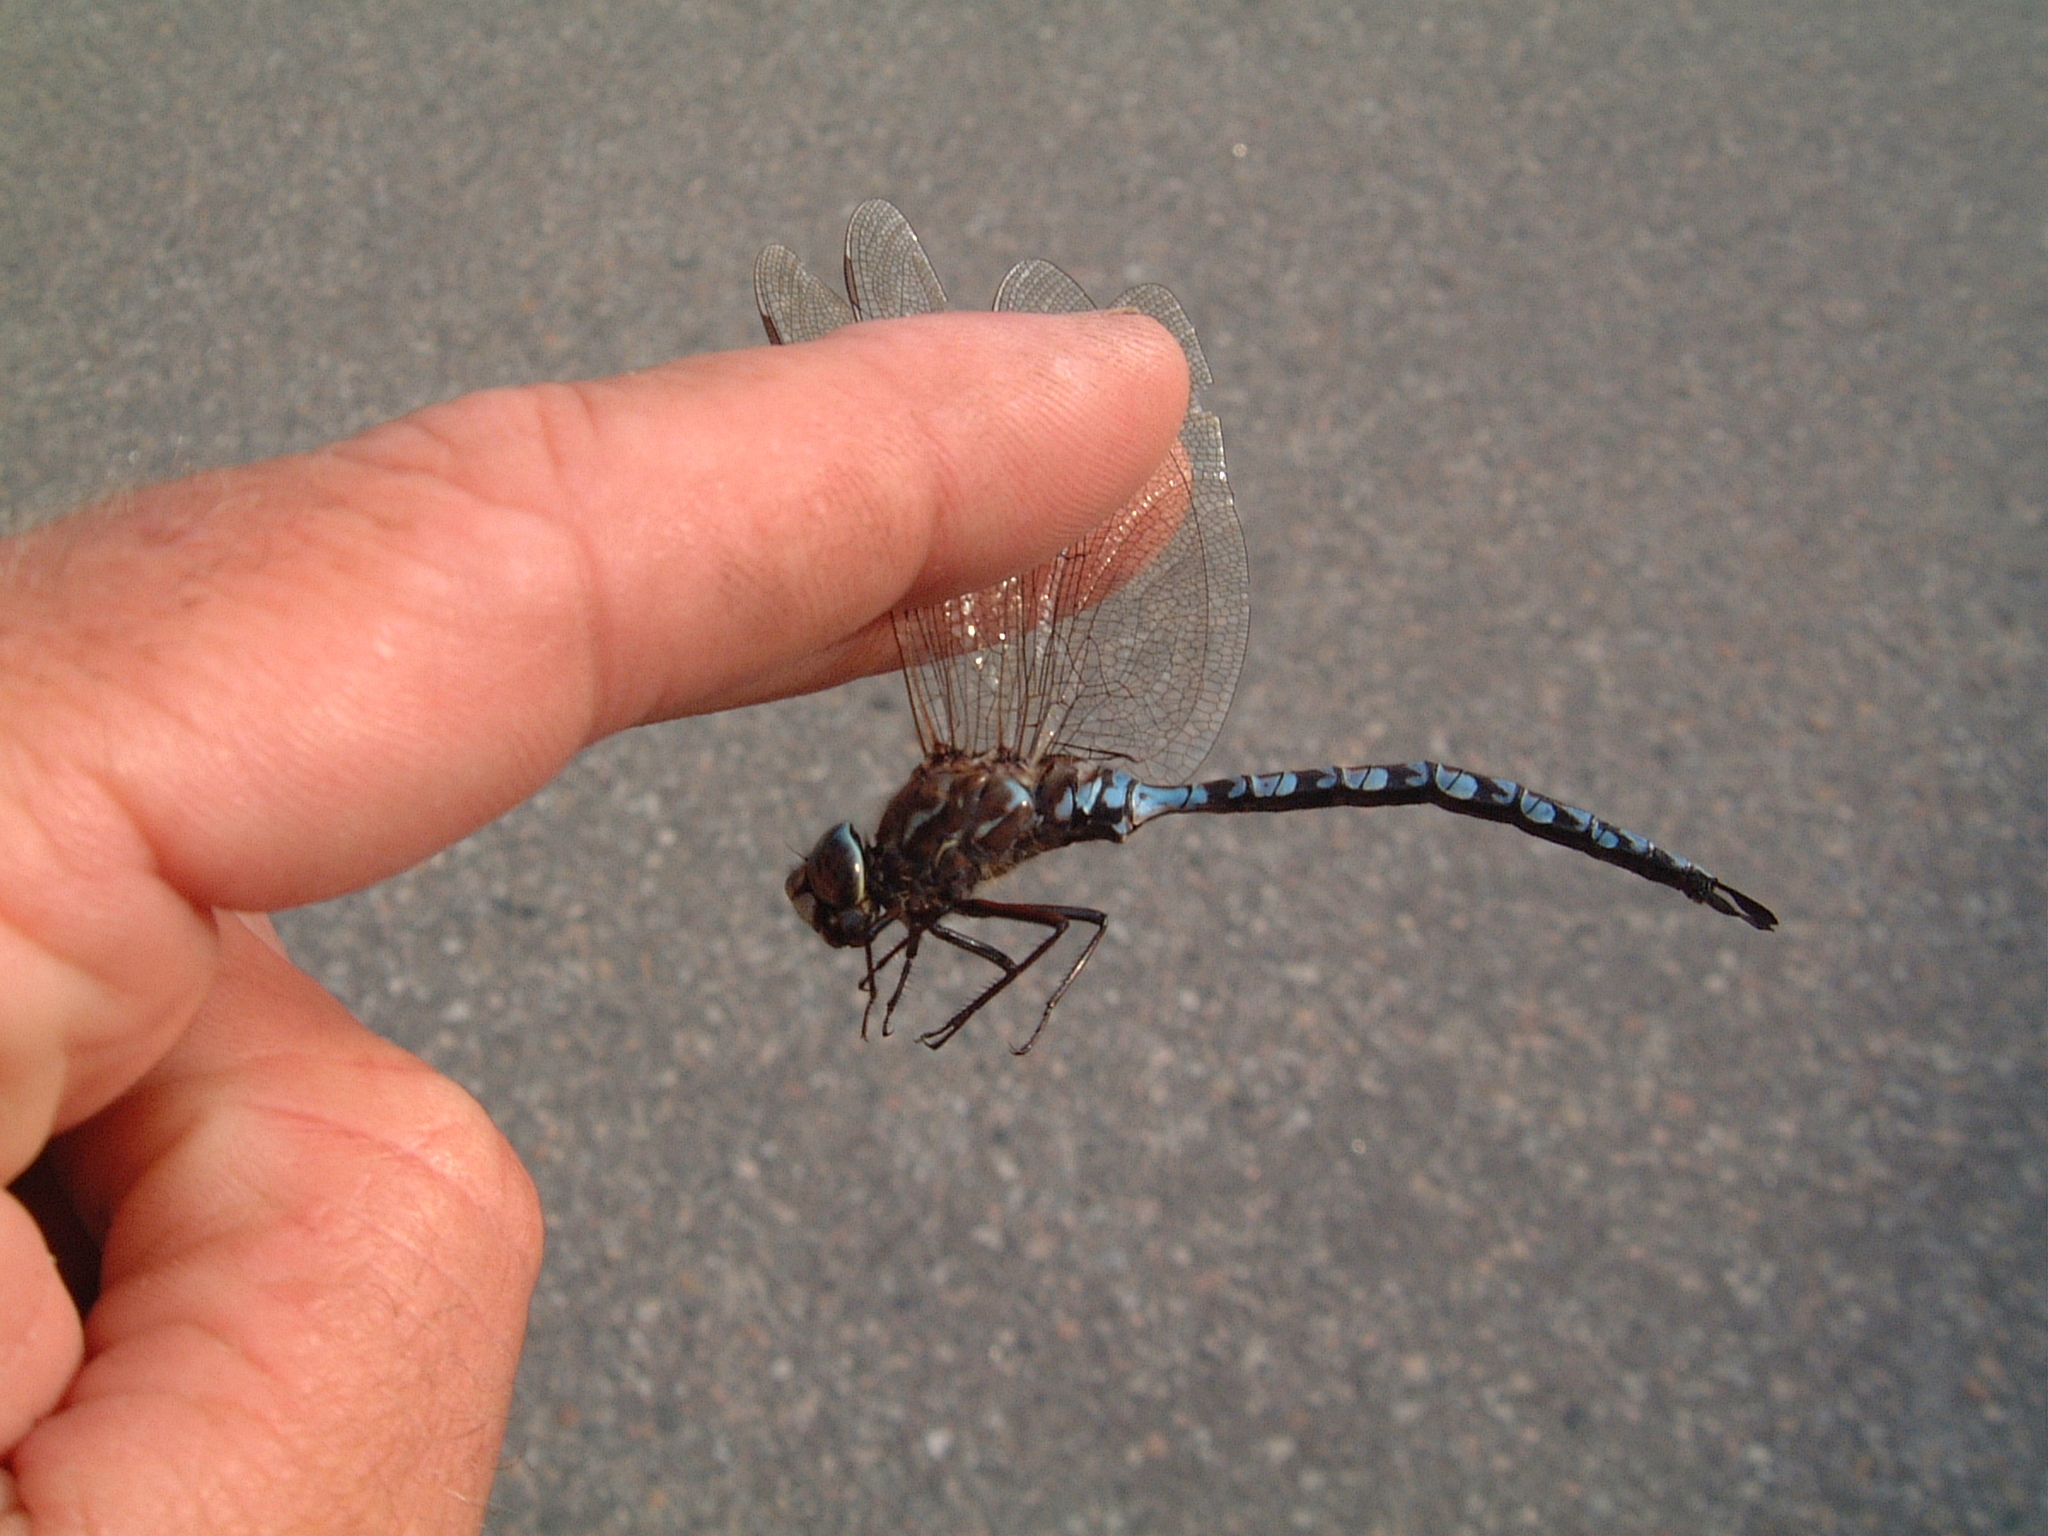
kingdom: Animalia
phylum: Arthropoda
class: Insecta
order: Odonata
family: Aeshnidae
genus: Aeshna
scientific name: Aeshna sitchensis
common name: Zigzag darner
